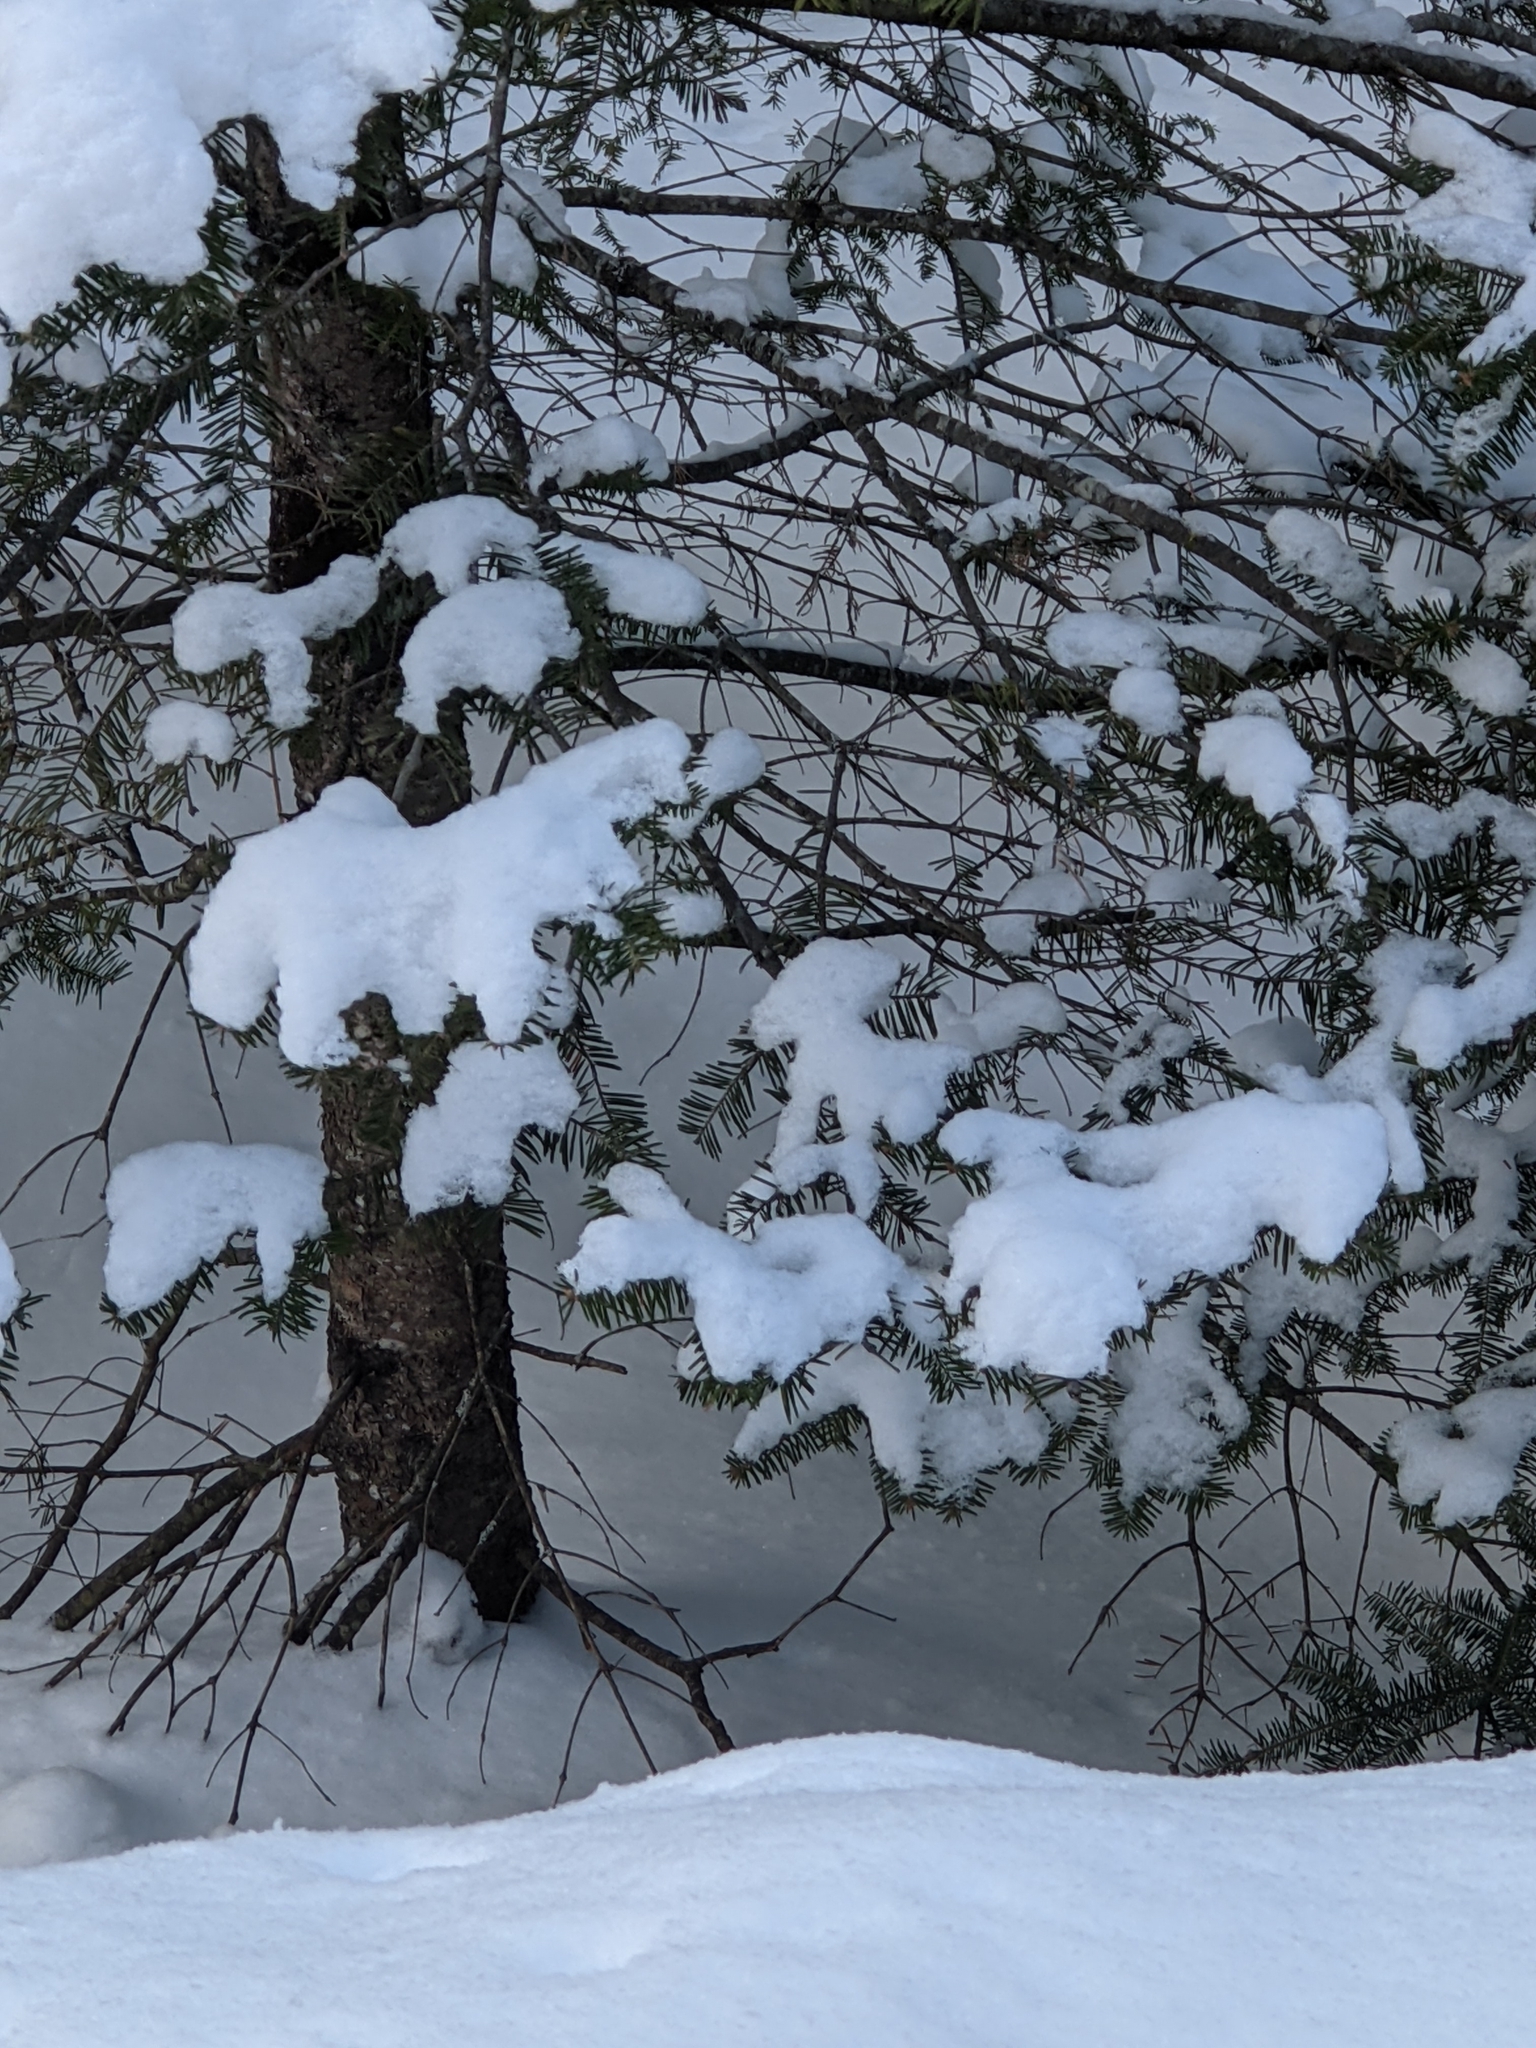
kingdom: Plantae
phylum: Tracheophyta
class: Pinopsida
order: Pinales
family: Pinaceae
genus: Abies
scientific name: Abies balsamea
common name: Balsam fir
